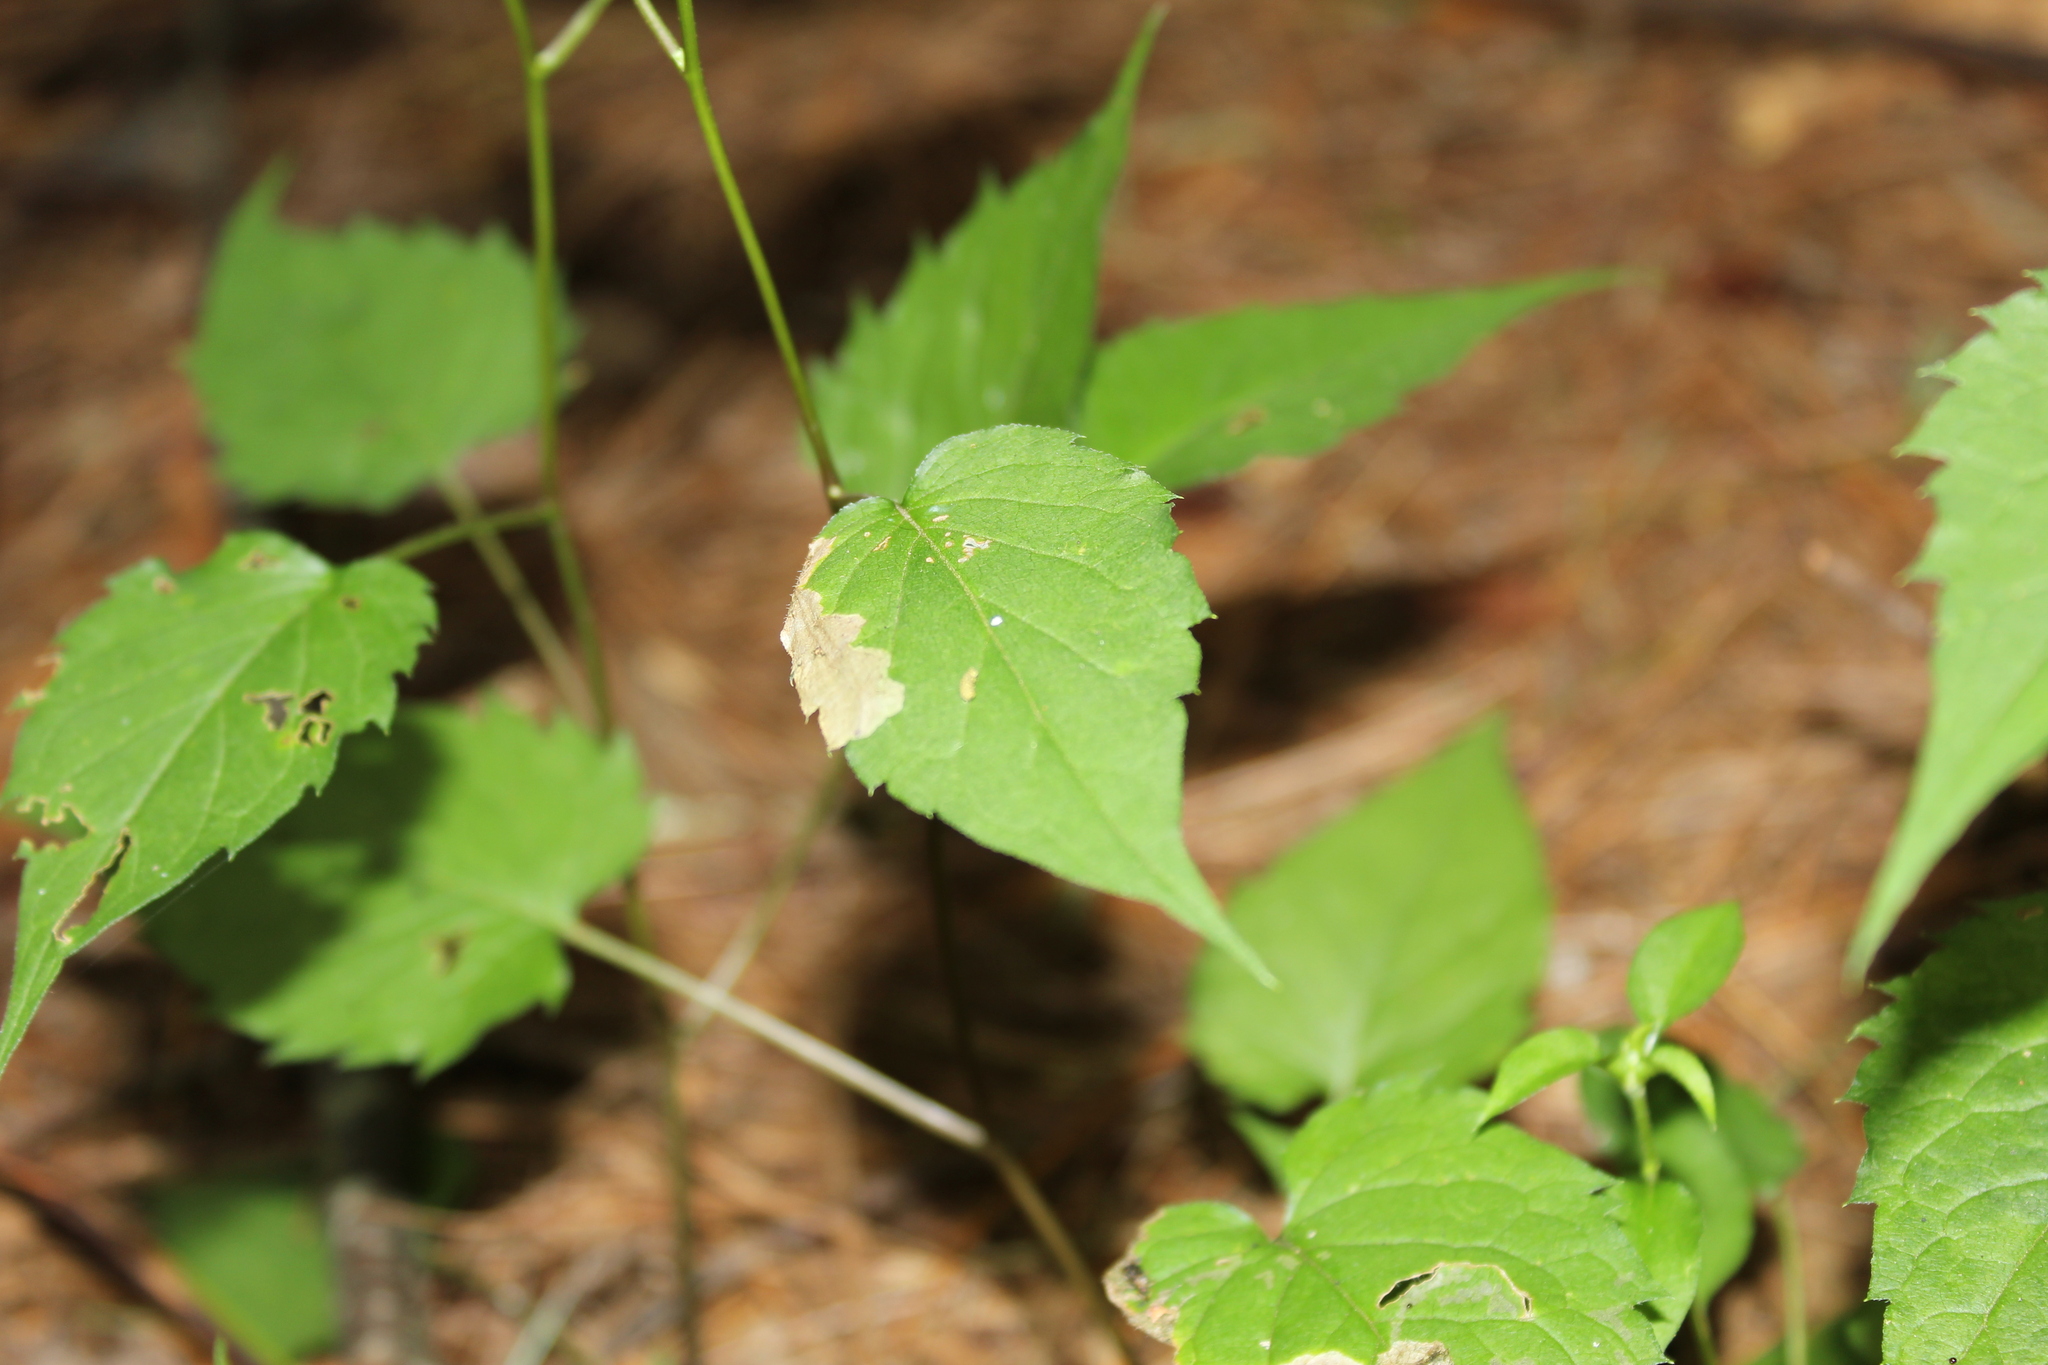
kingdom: Animalia
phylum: Arthropoda
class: Insecta
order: Coleoptera
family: Chrysomelidae
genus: Sumitrosis
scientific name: Sumitrosis inaequalis
